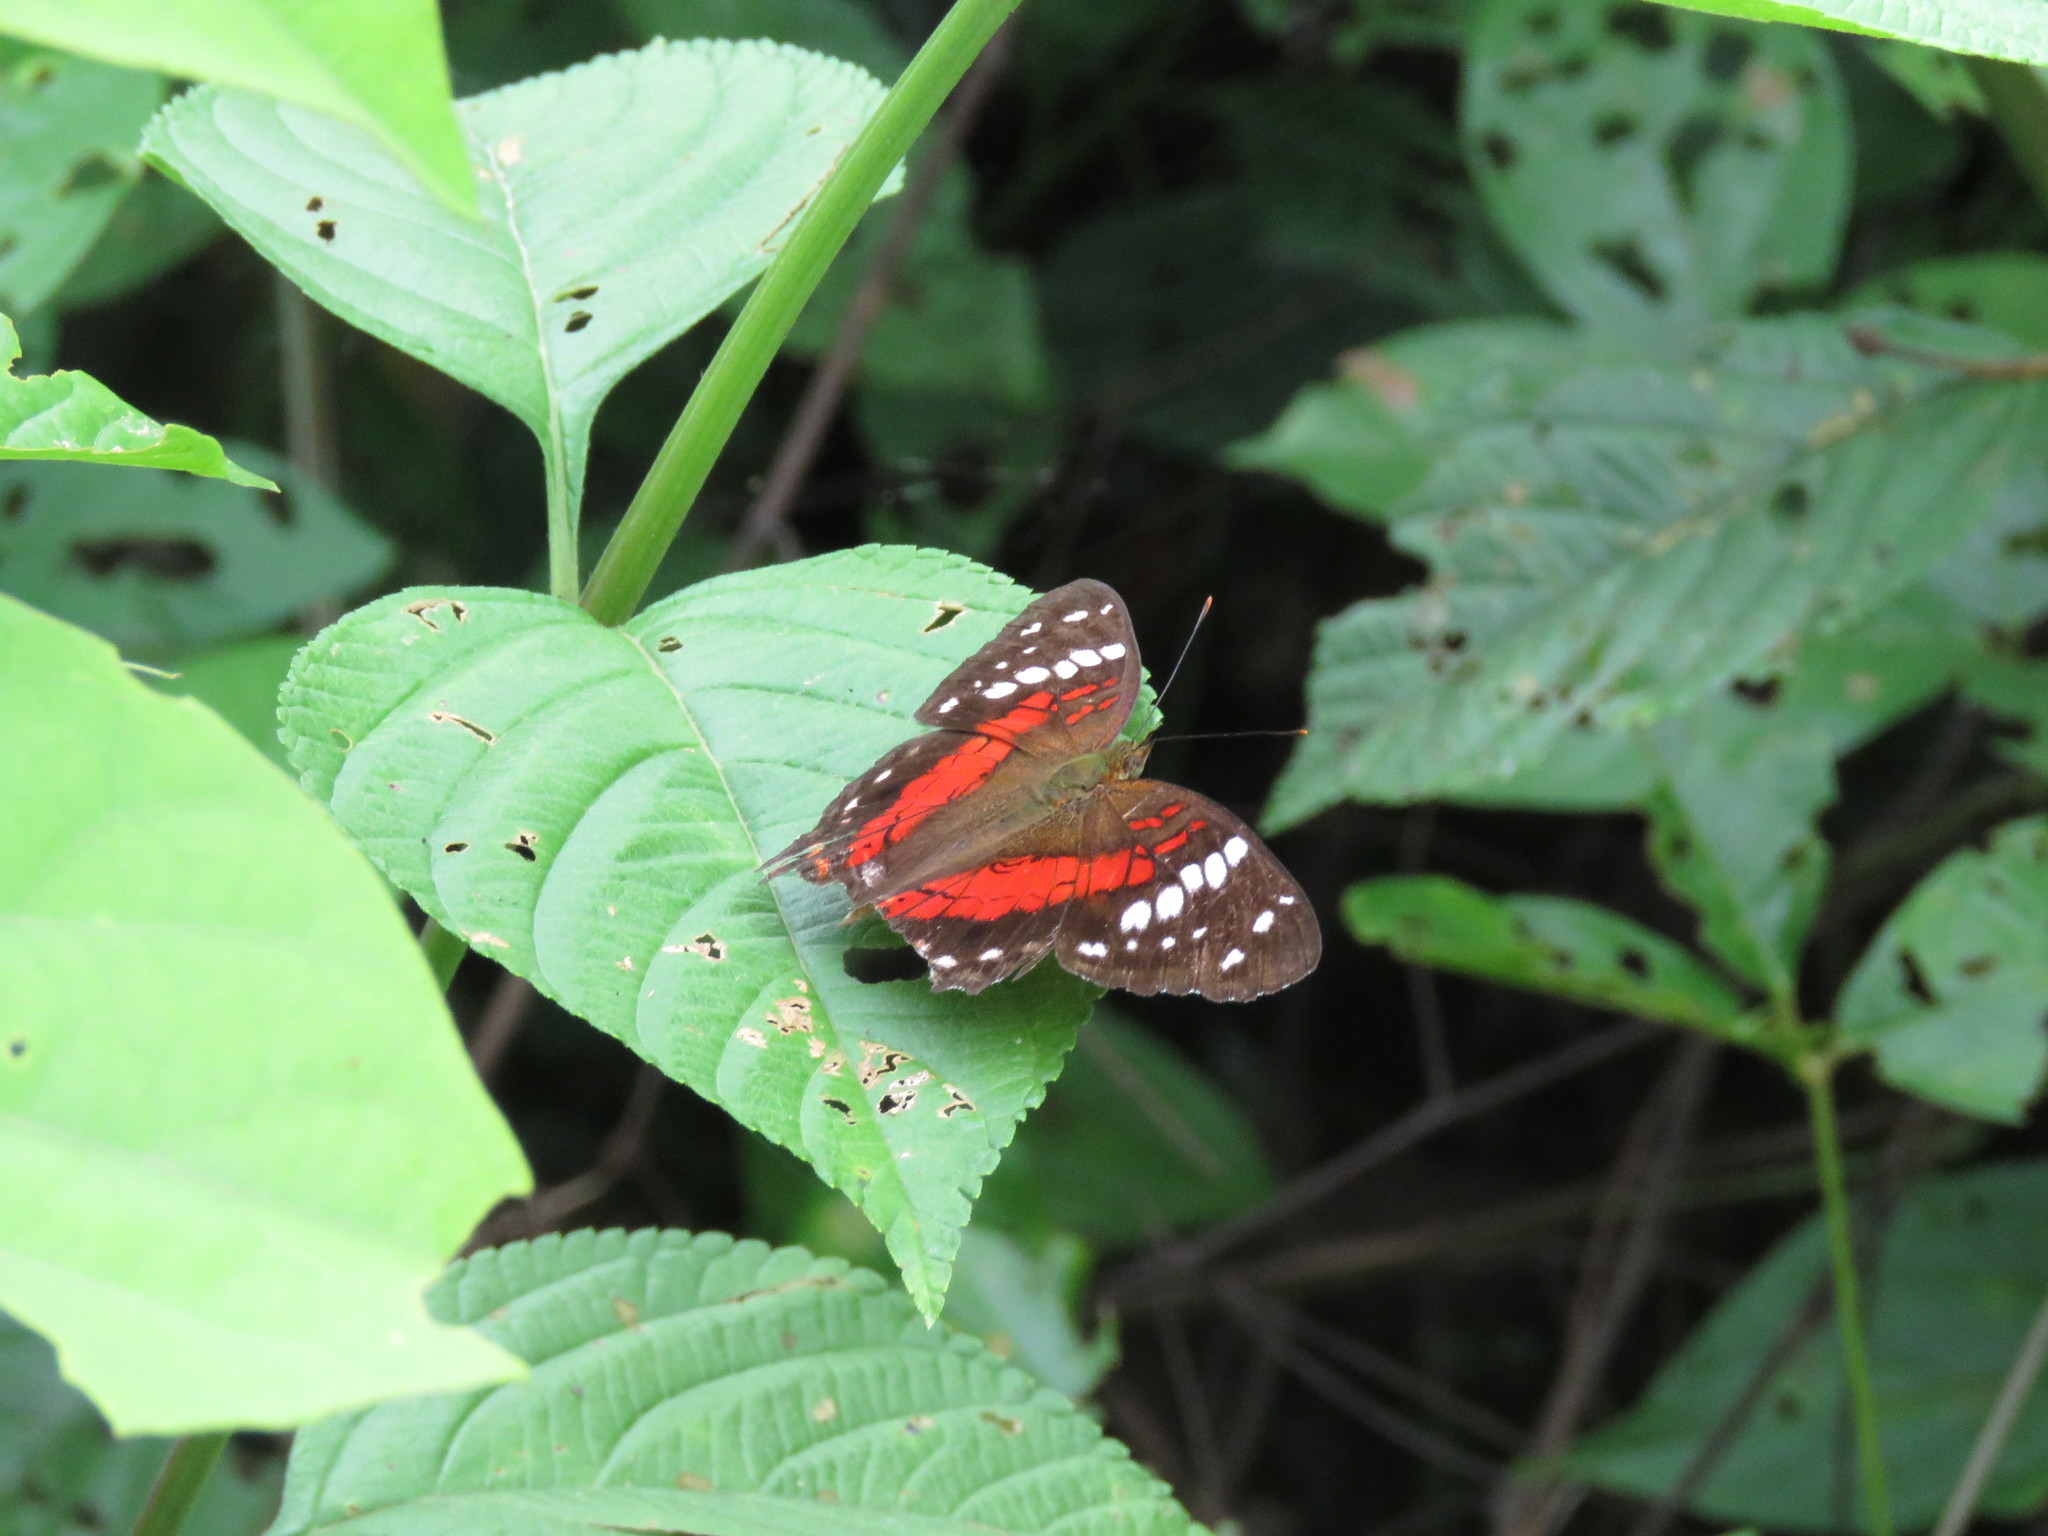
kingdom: Animalia
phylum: Arthropoda
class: Insecta
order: Lepidoptera
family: Nymphalidae
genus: Anartia
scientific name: Anartia amathea
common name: Red peacock
